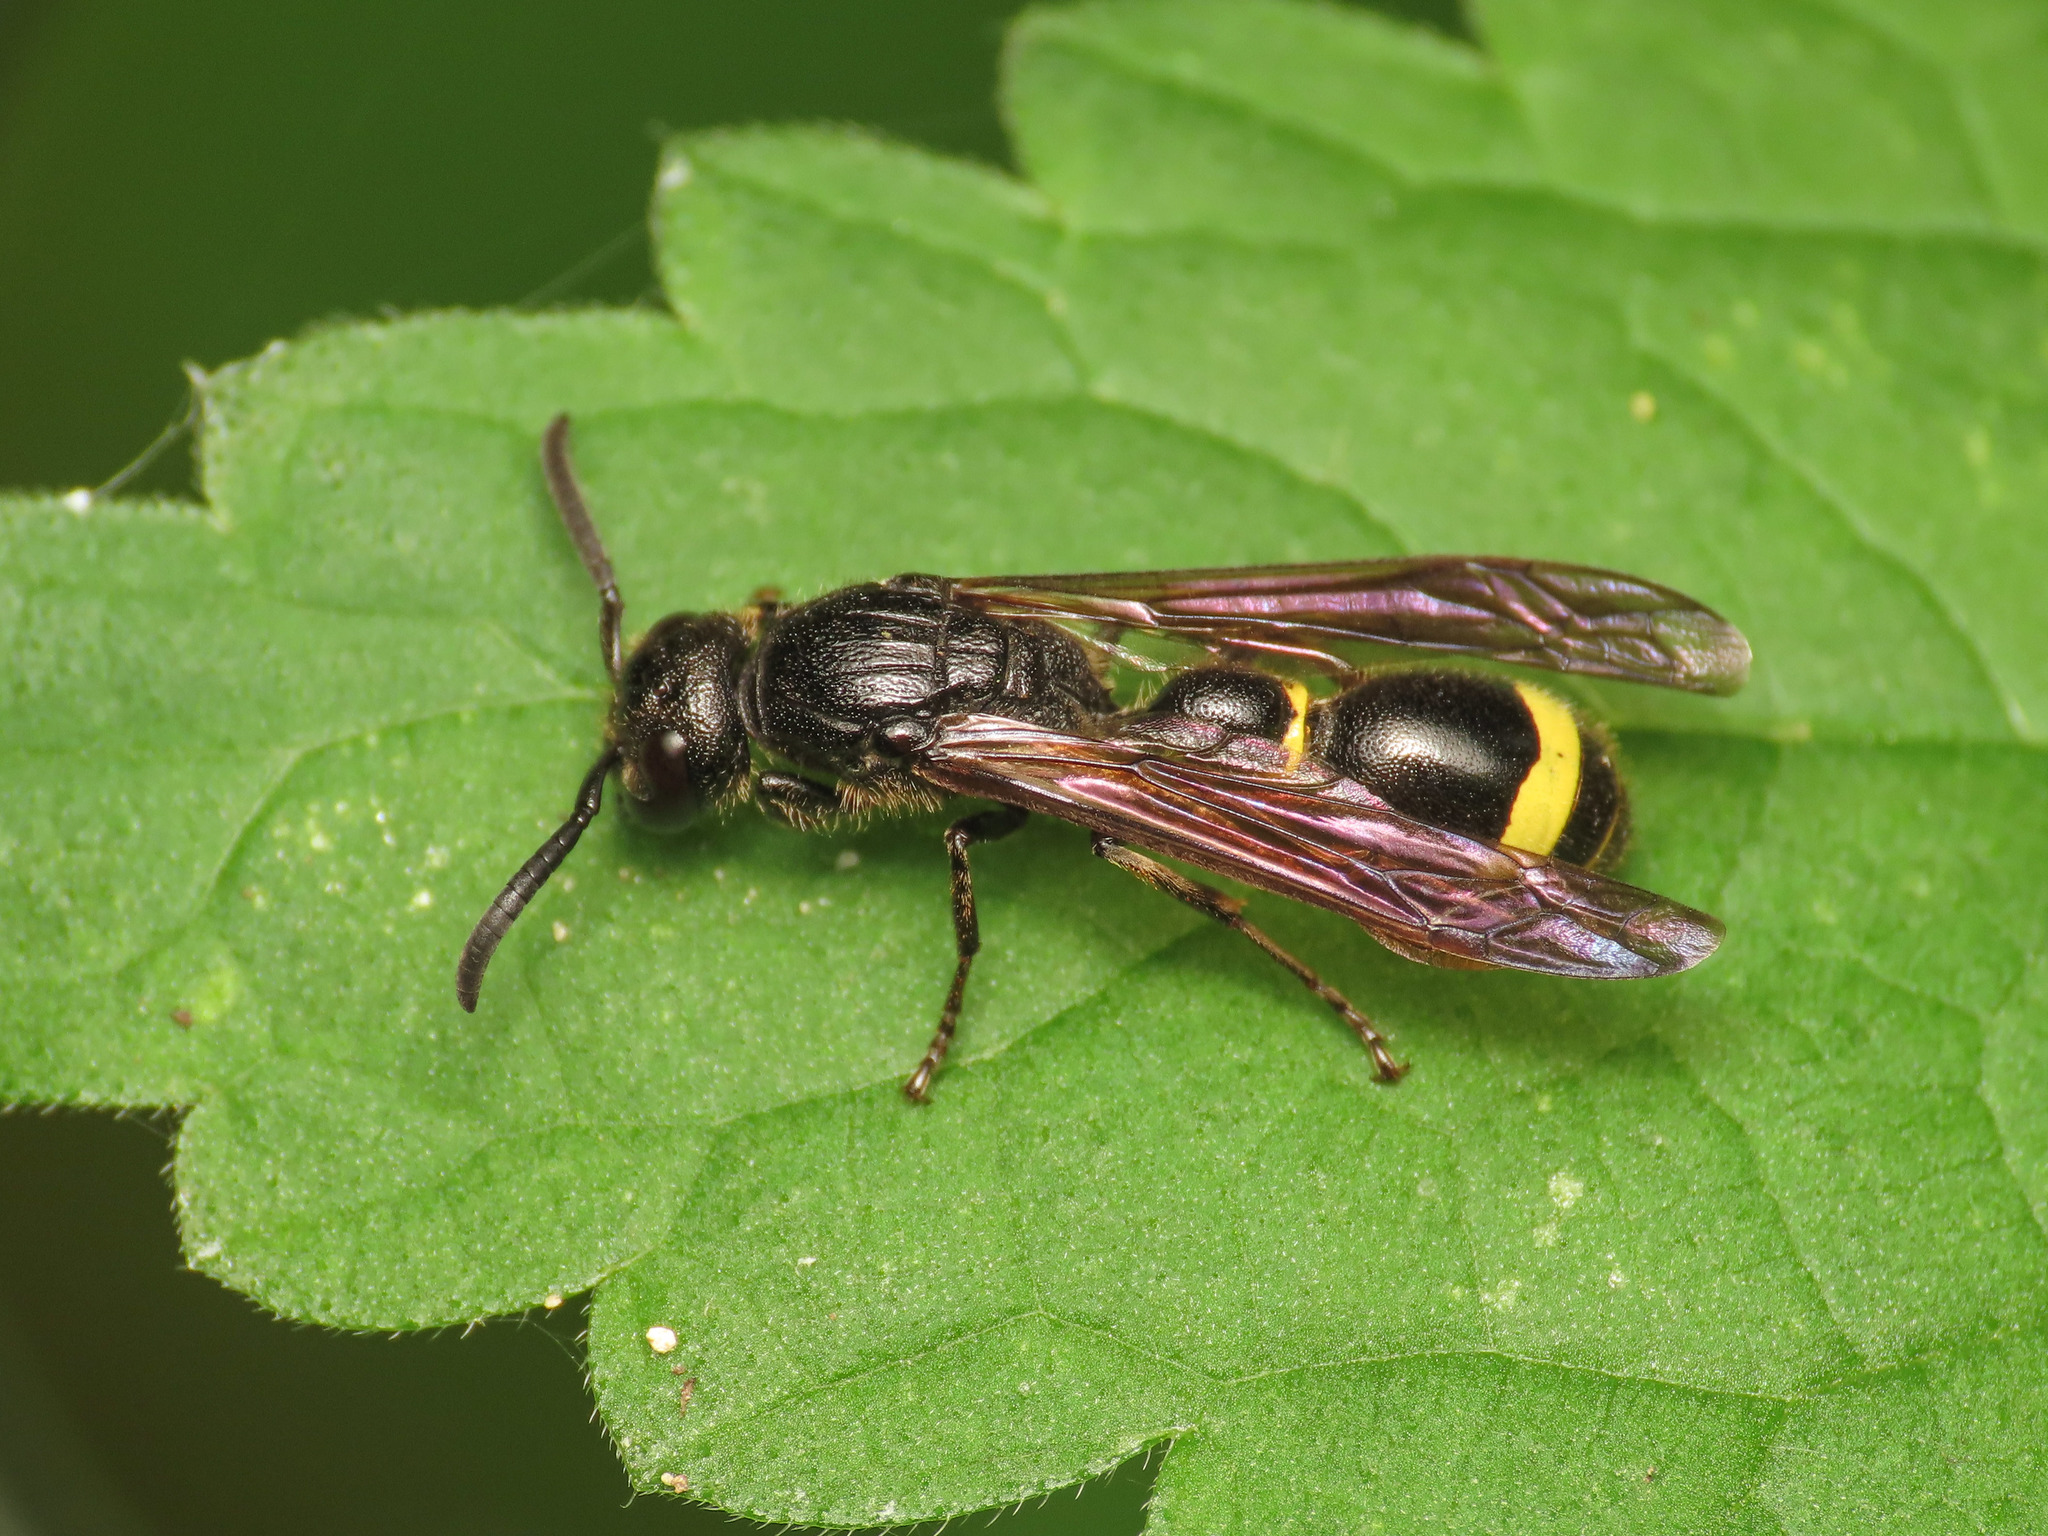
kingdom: Animalia
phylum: Arthropoda
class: Insecta
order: Hymenoptera
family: Eumenidae
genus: Discoelius
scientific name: Discoelius zonalis
